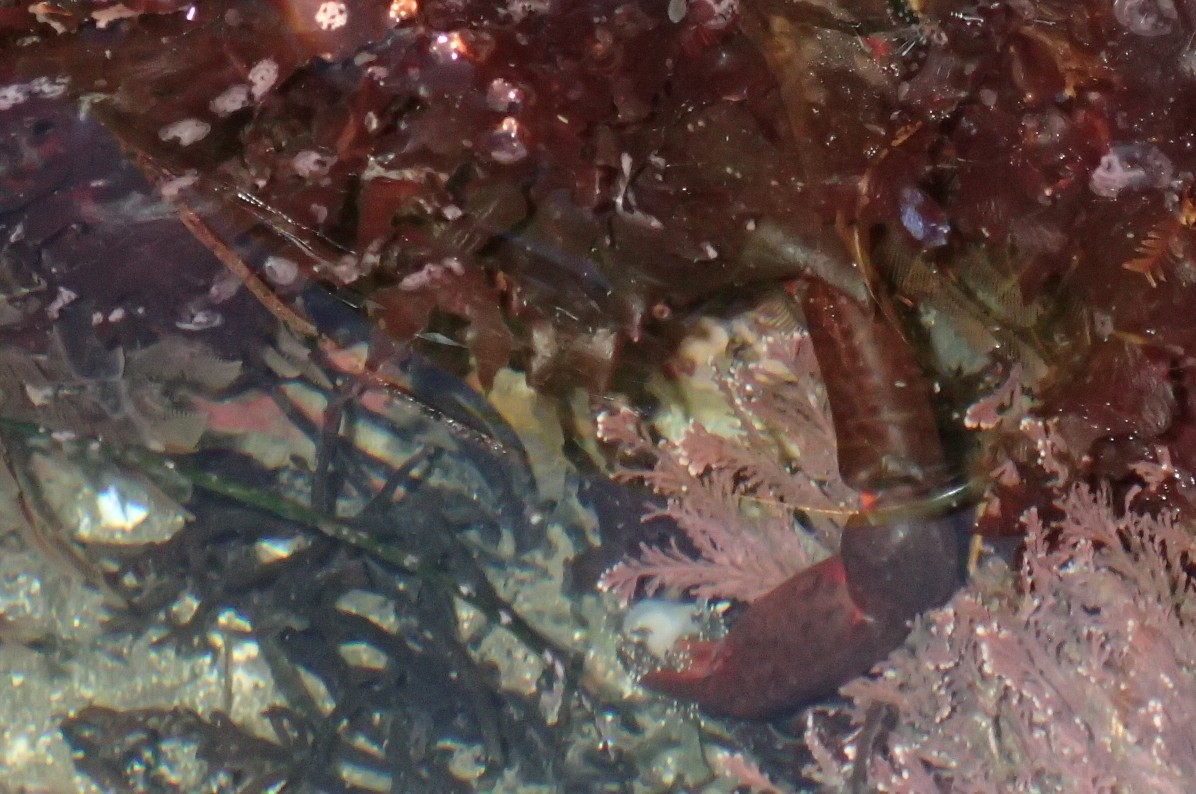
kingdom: Animalia
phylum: Arthropoda
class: Malacostraca
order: Decapoda
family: Epialtidae
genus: Pugettia
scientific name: Pugettia producta
